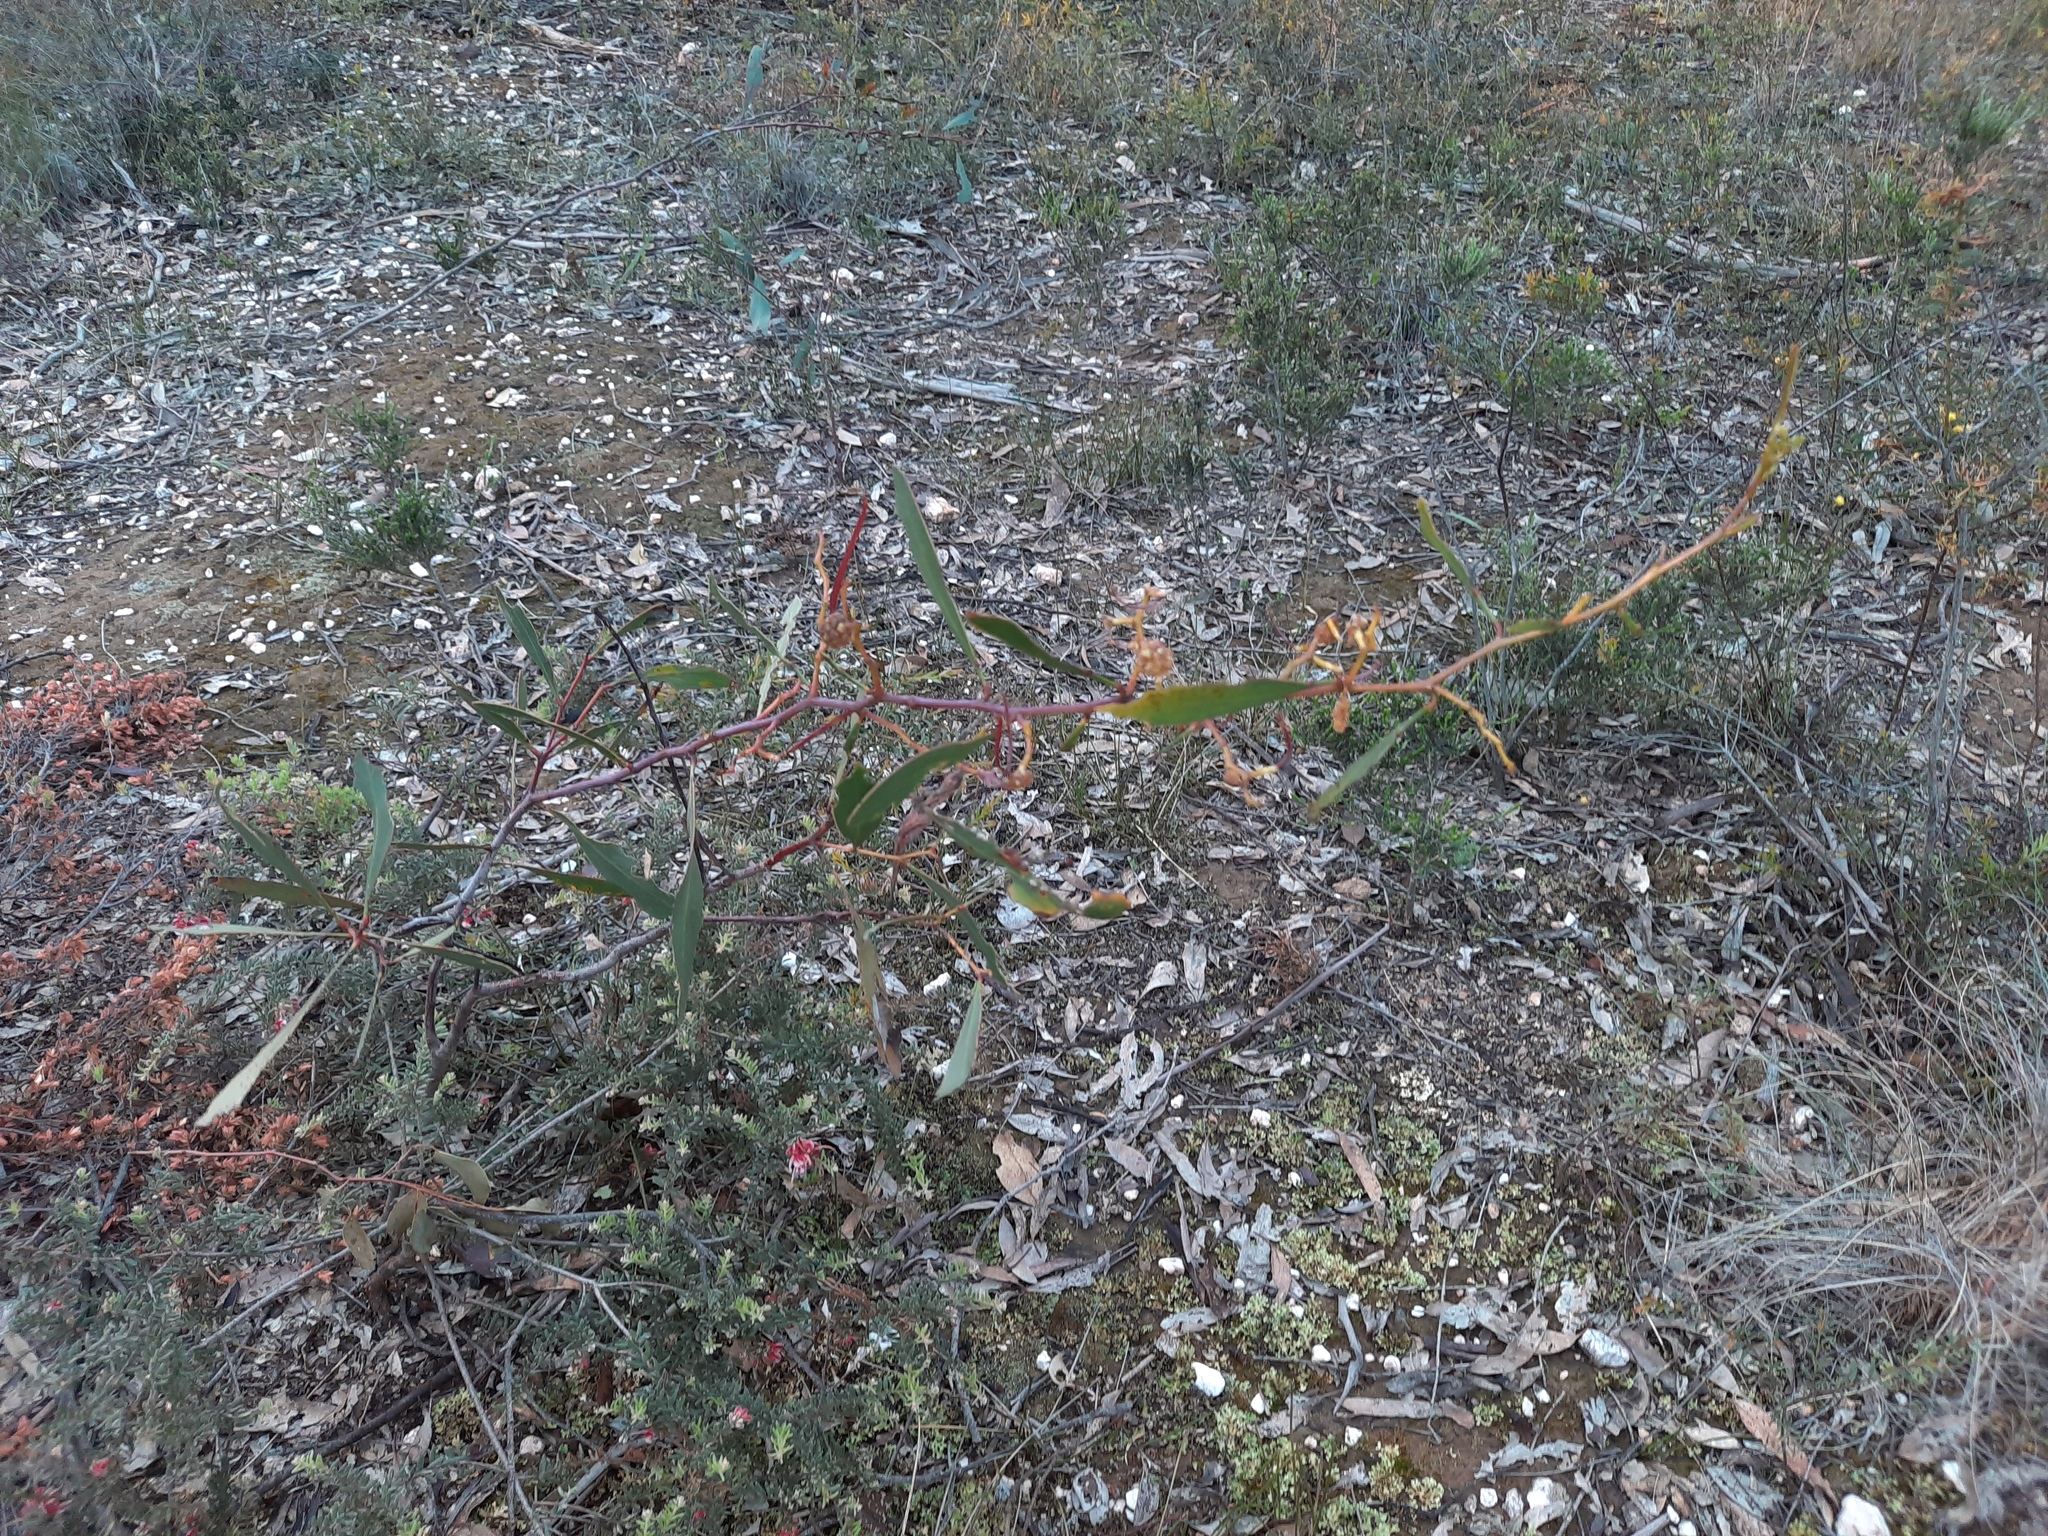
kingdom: Plantae
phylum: Tracheophyta
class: Magnoliopsida
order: Fabales
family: Fabaceae
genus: Acacia
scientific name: Acacia pycnantha
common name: Golden wattle
